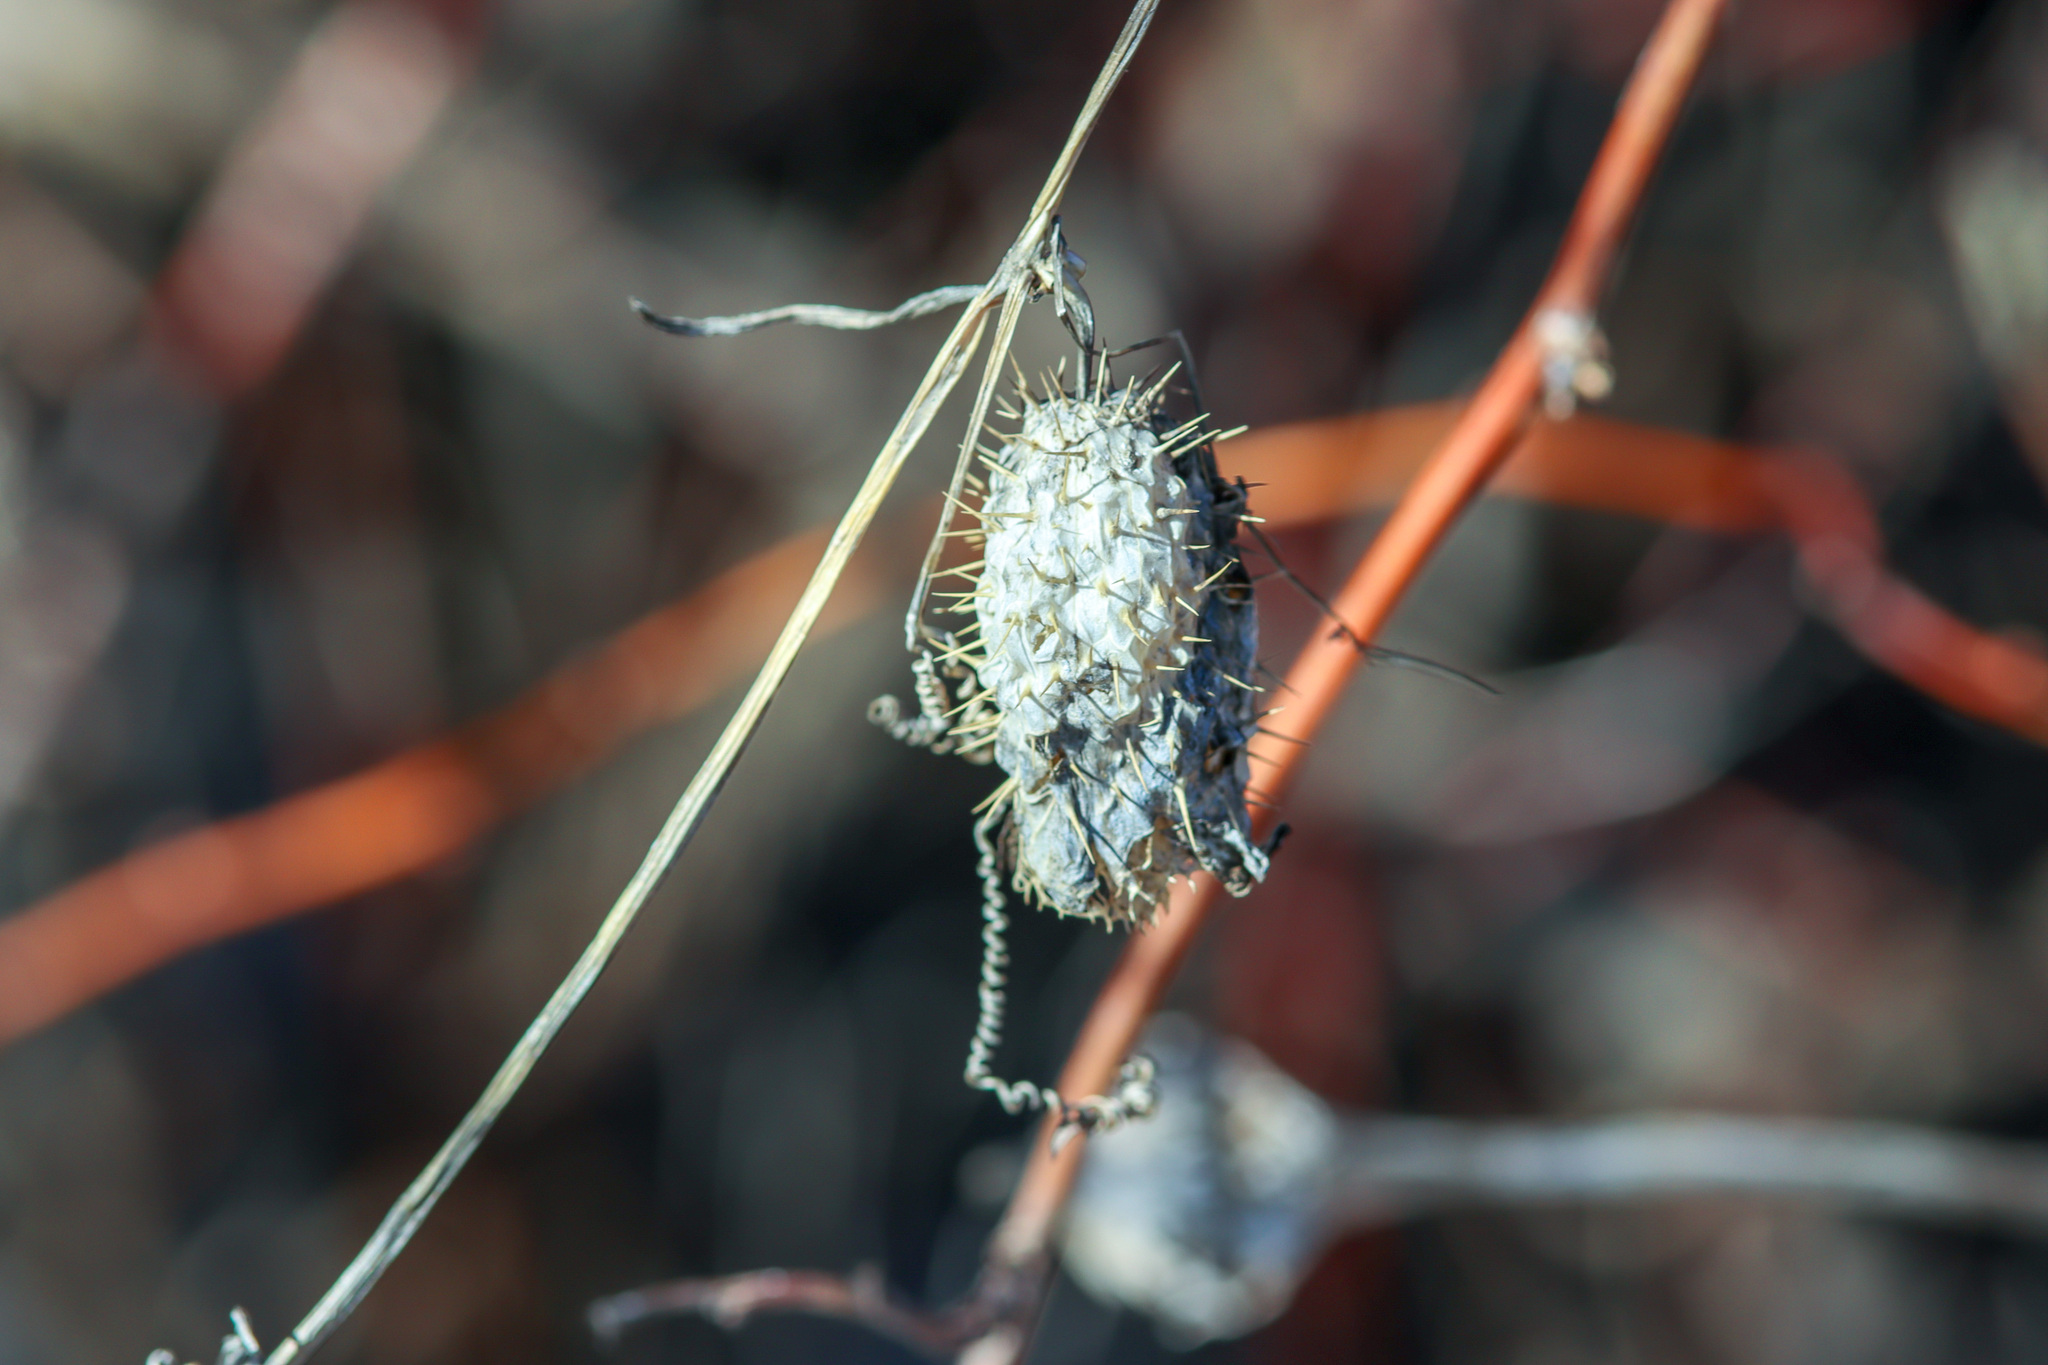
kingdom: Plantae
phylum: Tracheophyta
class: Magnoliopsida
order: Cucurbitales
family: Cucurbitaceae
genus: Echinocystis
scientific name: Echinocystis lobata
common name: Wild cucumber
